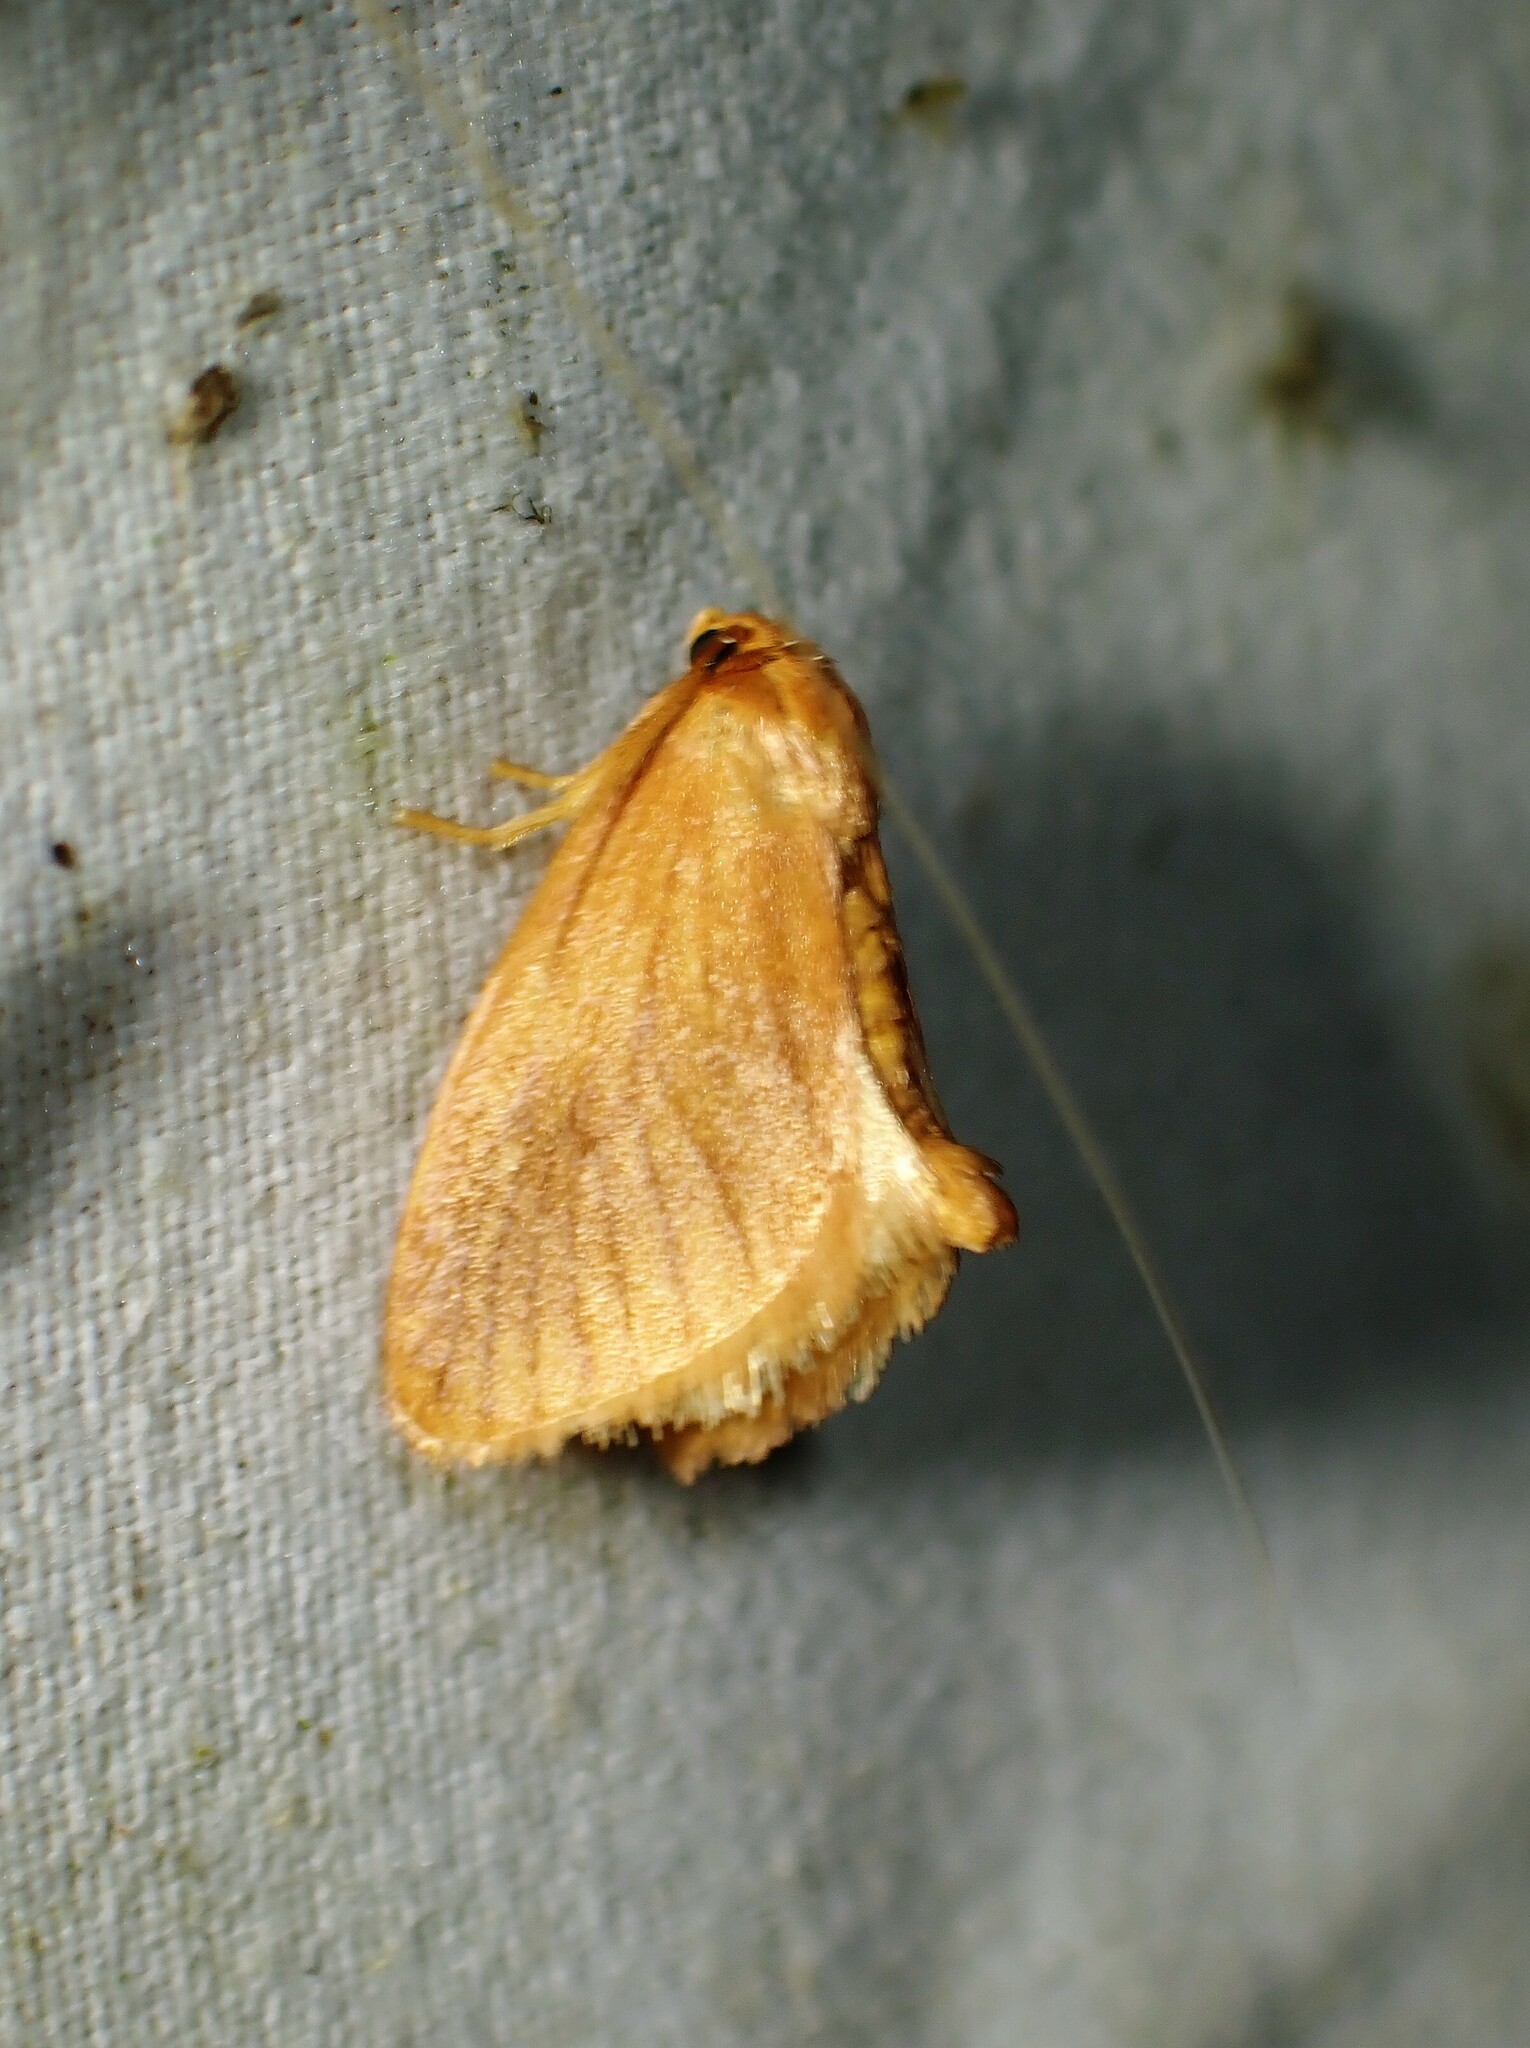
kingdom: Animalia
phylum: Arthropoda
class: Insecta
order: Lepidoptera
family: Limacodidae
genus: Tortricidia
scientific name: Tortricidia testacea
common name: Early button slug moth
